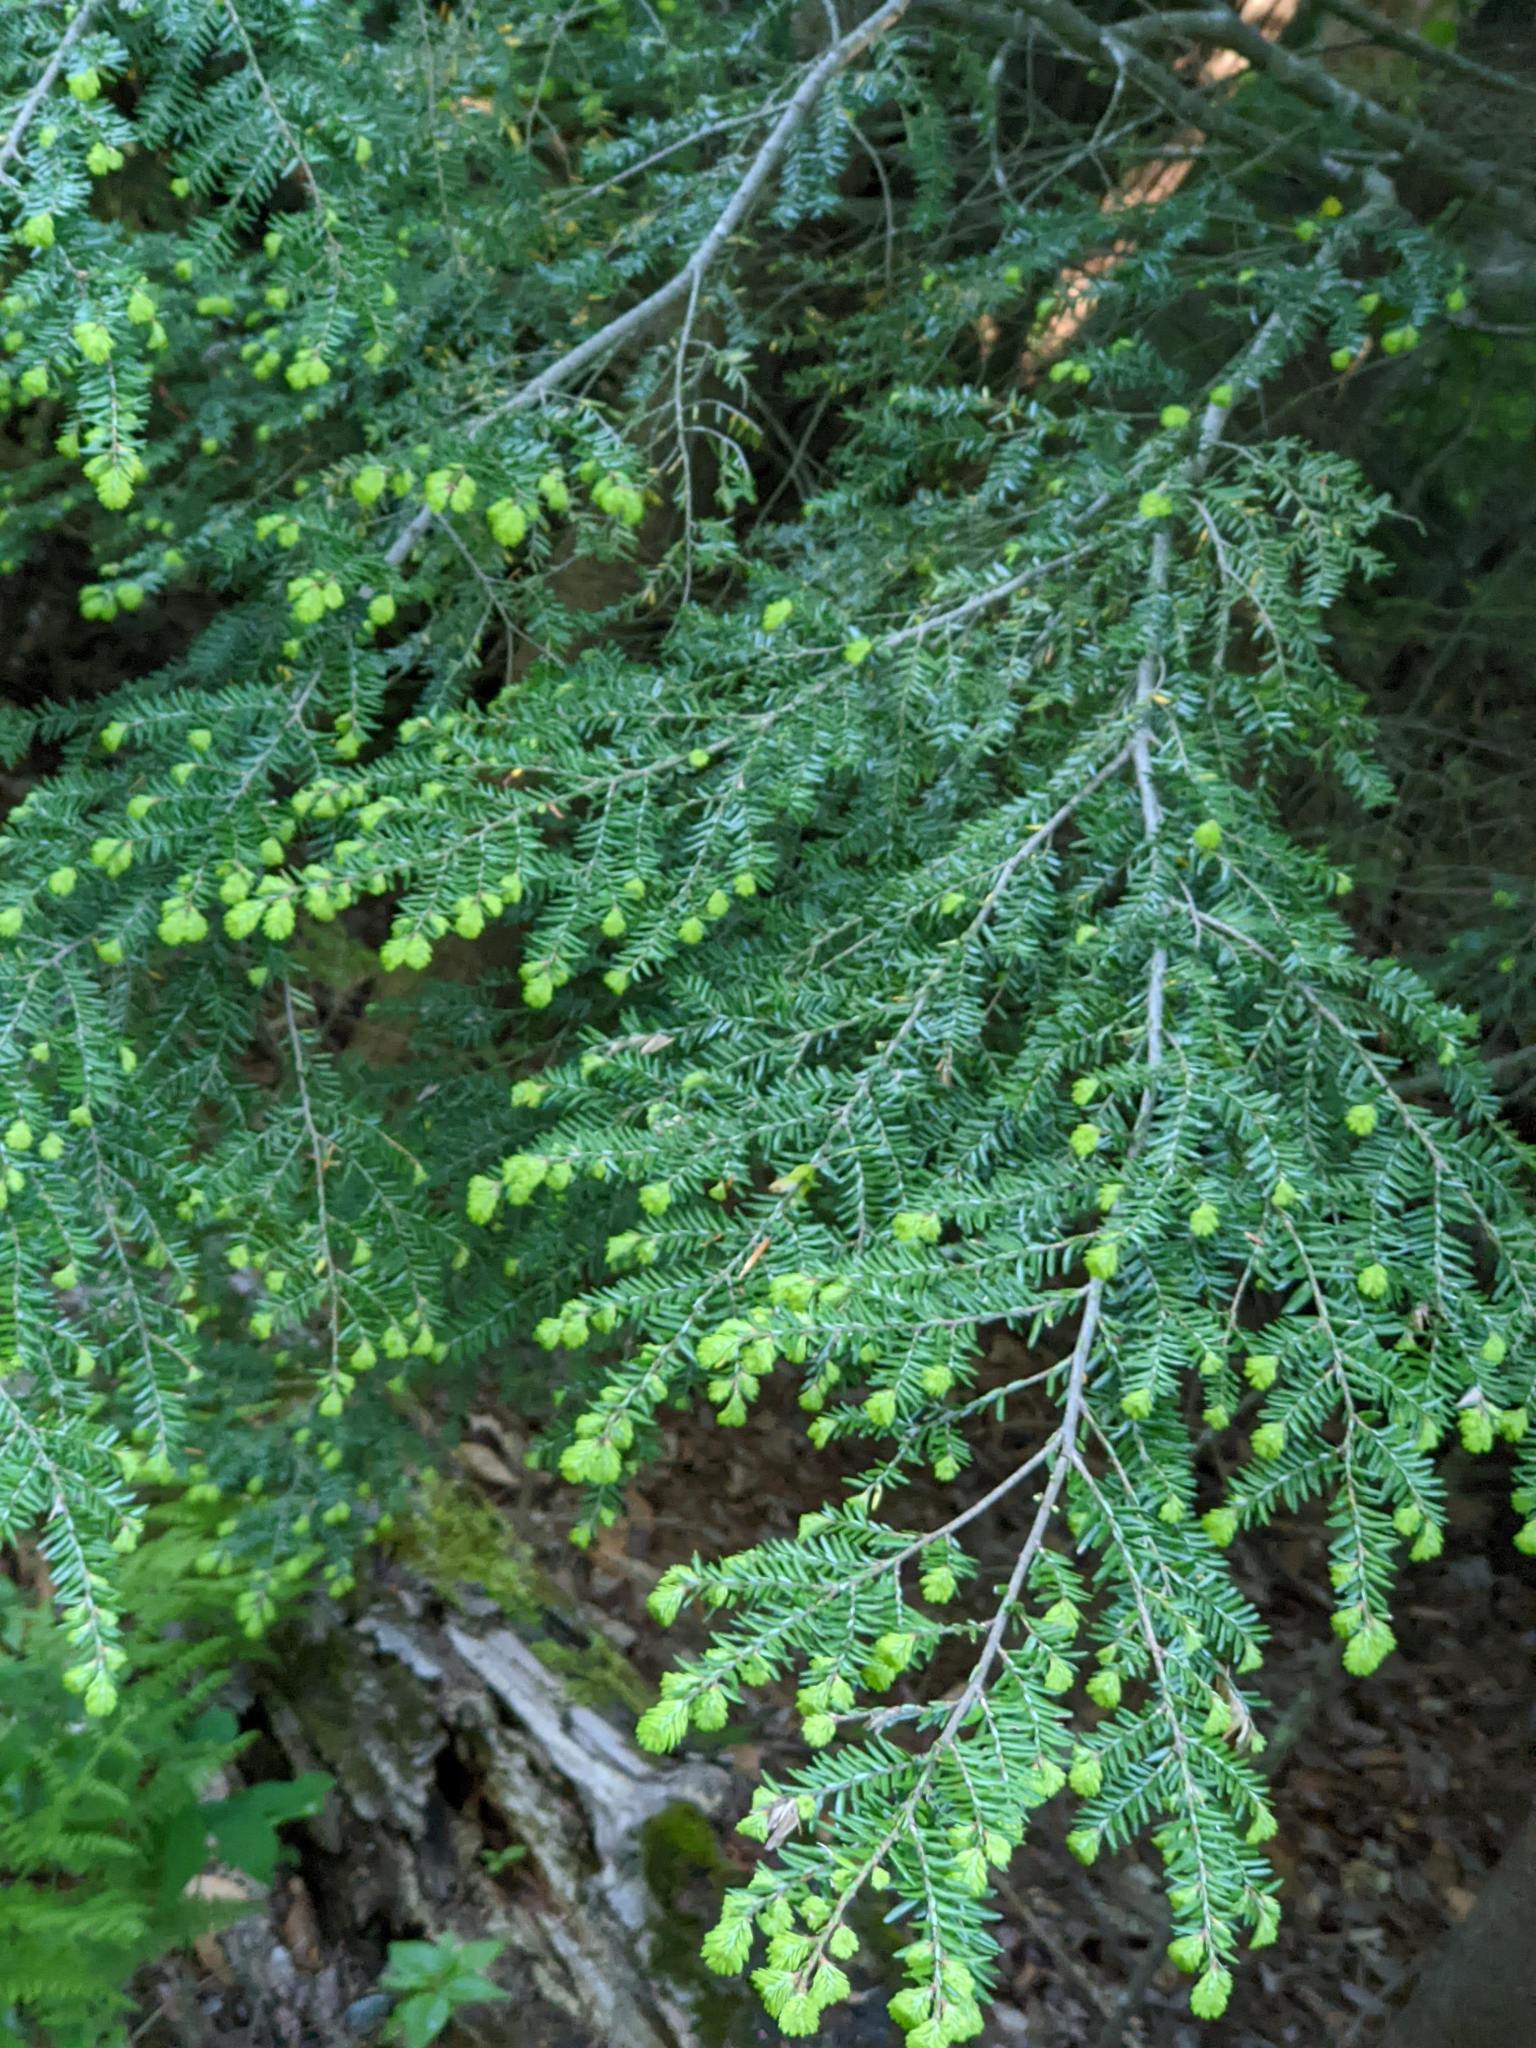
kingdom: Plantae
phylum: Tracheophyta
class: Pinopsida
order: Pinales
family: Pinaceae
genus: Tsuga
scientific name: Tsuga canadensis
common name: Eastern hemlock
